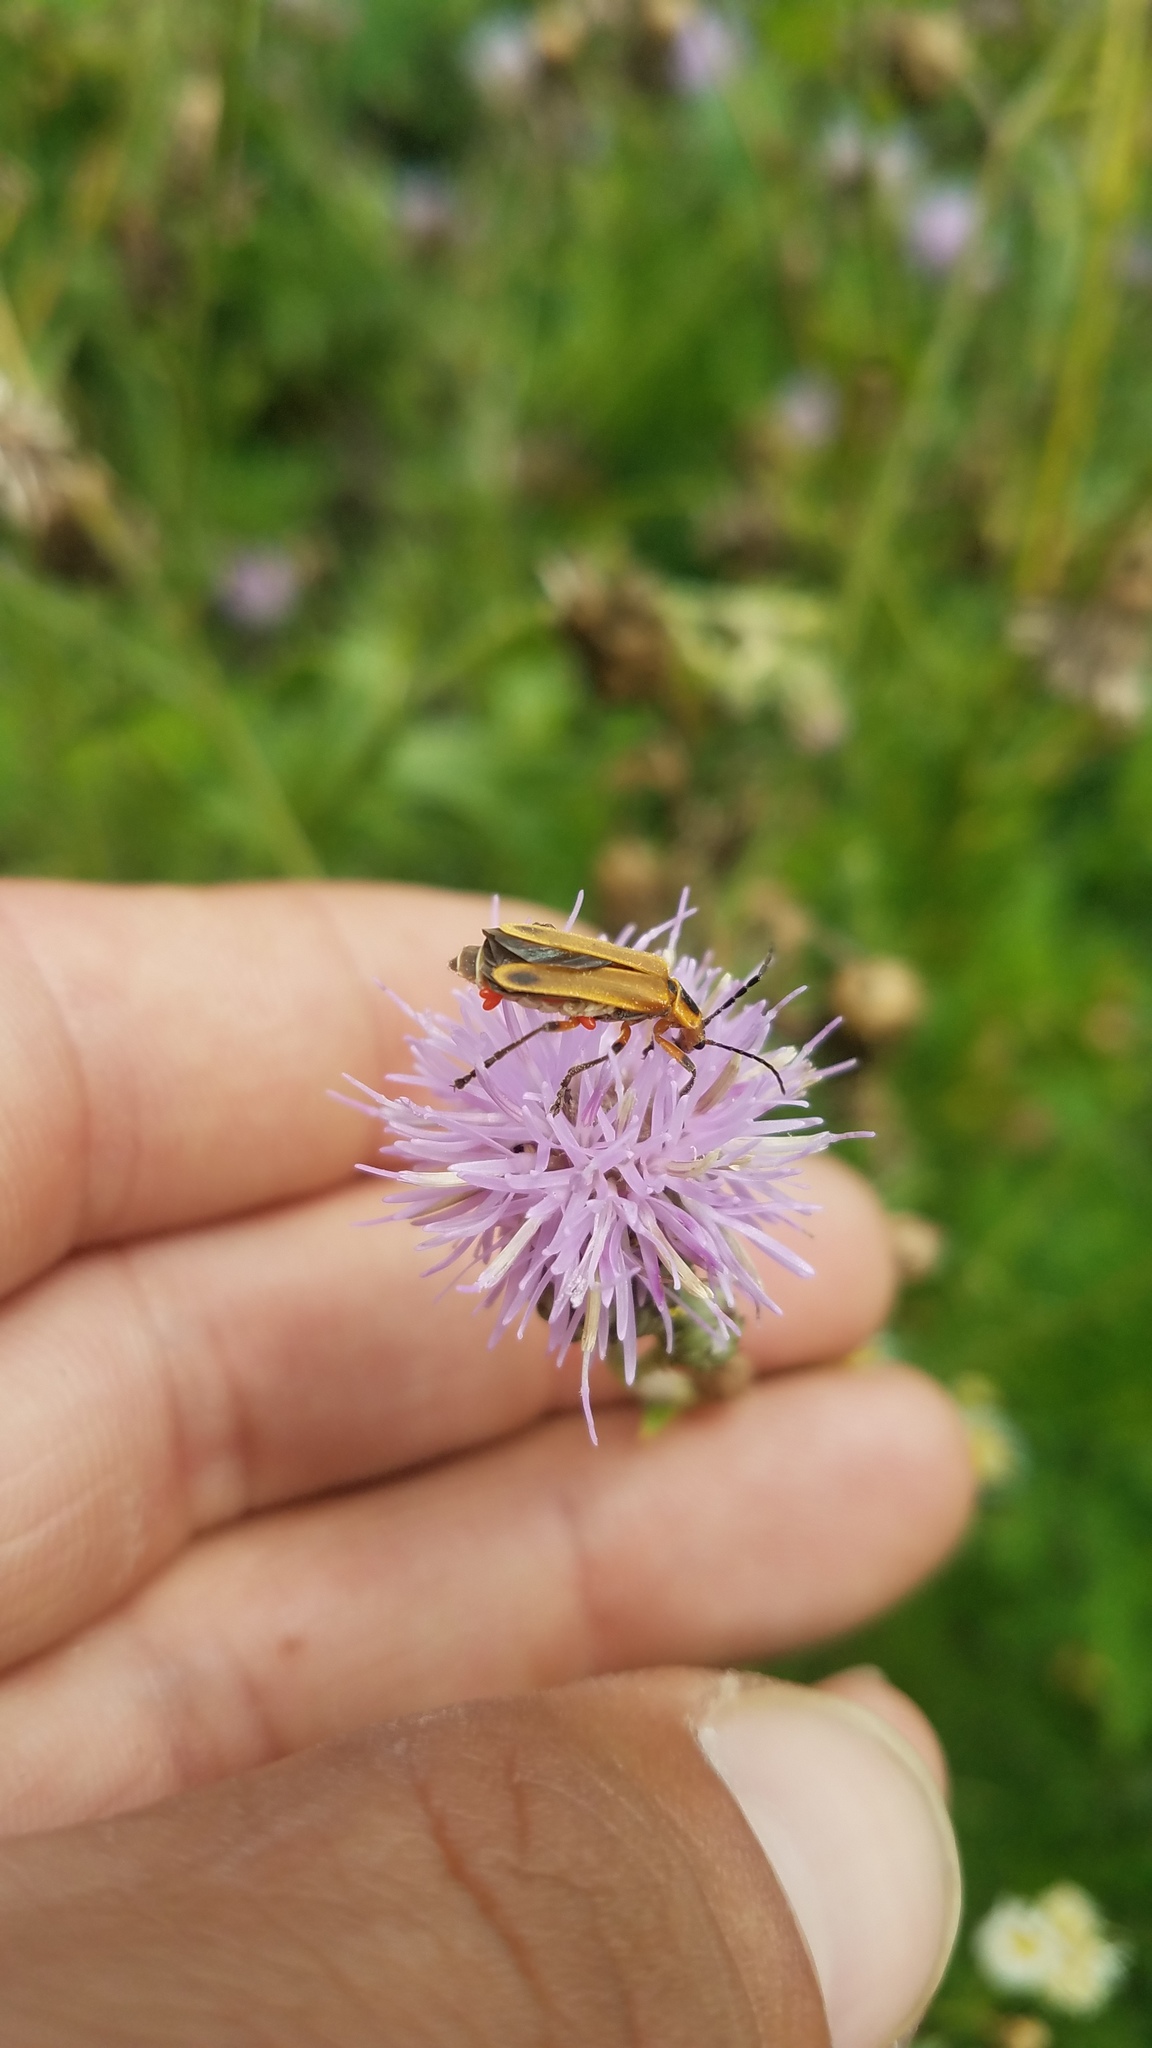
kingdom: Animalia
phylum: Arthropoda
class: Insecta
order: Coleoptera
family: Cantharidae
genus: Chauliognathus
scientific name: Chauliognathus marginatus
